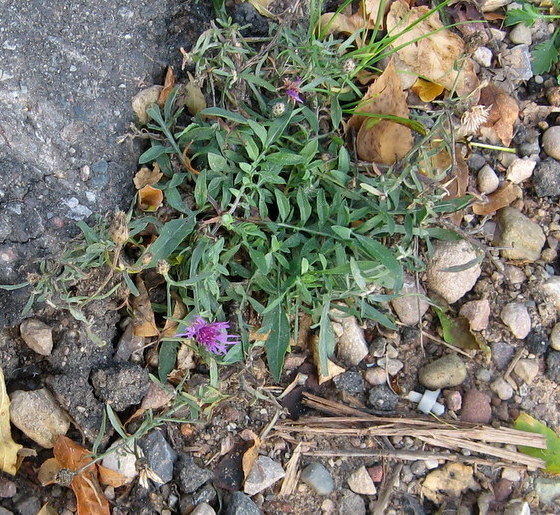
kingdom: Plantae
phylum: Tracheophyta
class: Magnoliopsida
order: Asterales
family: Asteraceae
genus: Centaurea
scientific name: Centaurea stoebe
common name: Spotted knapweed
